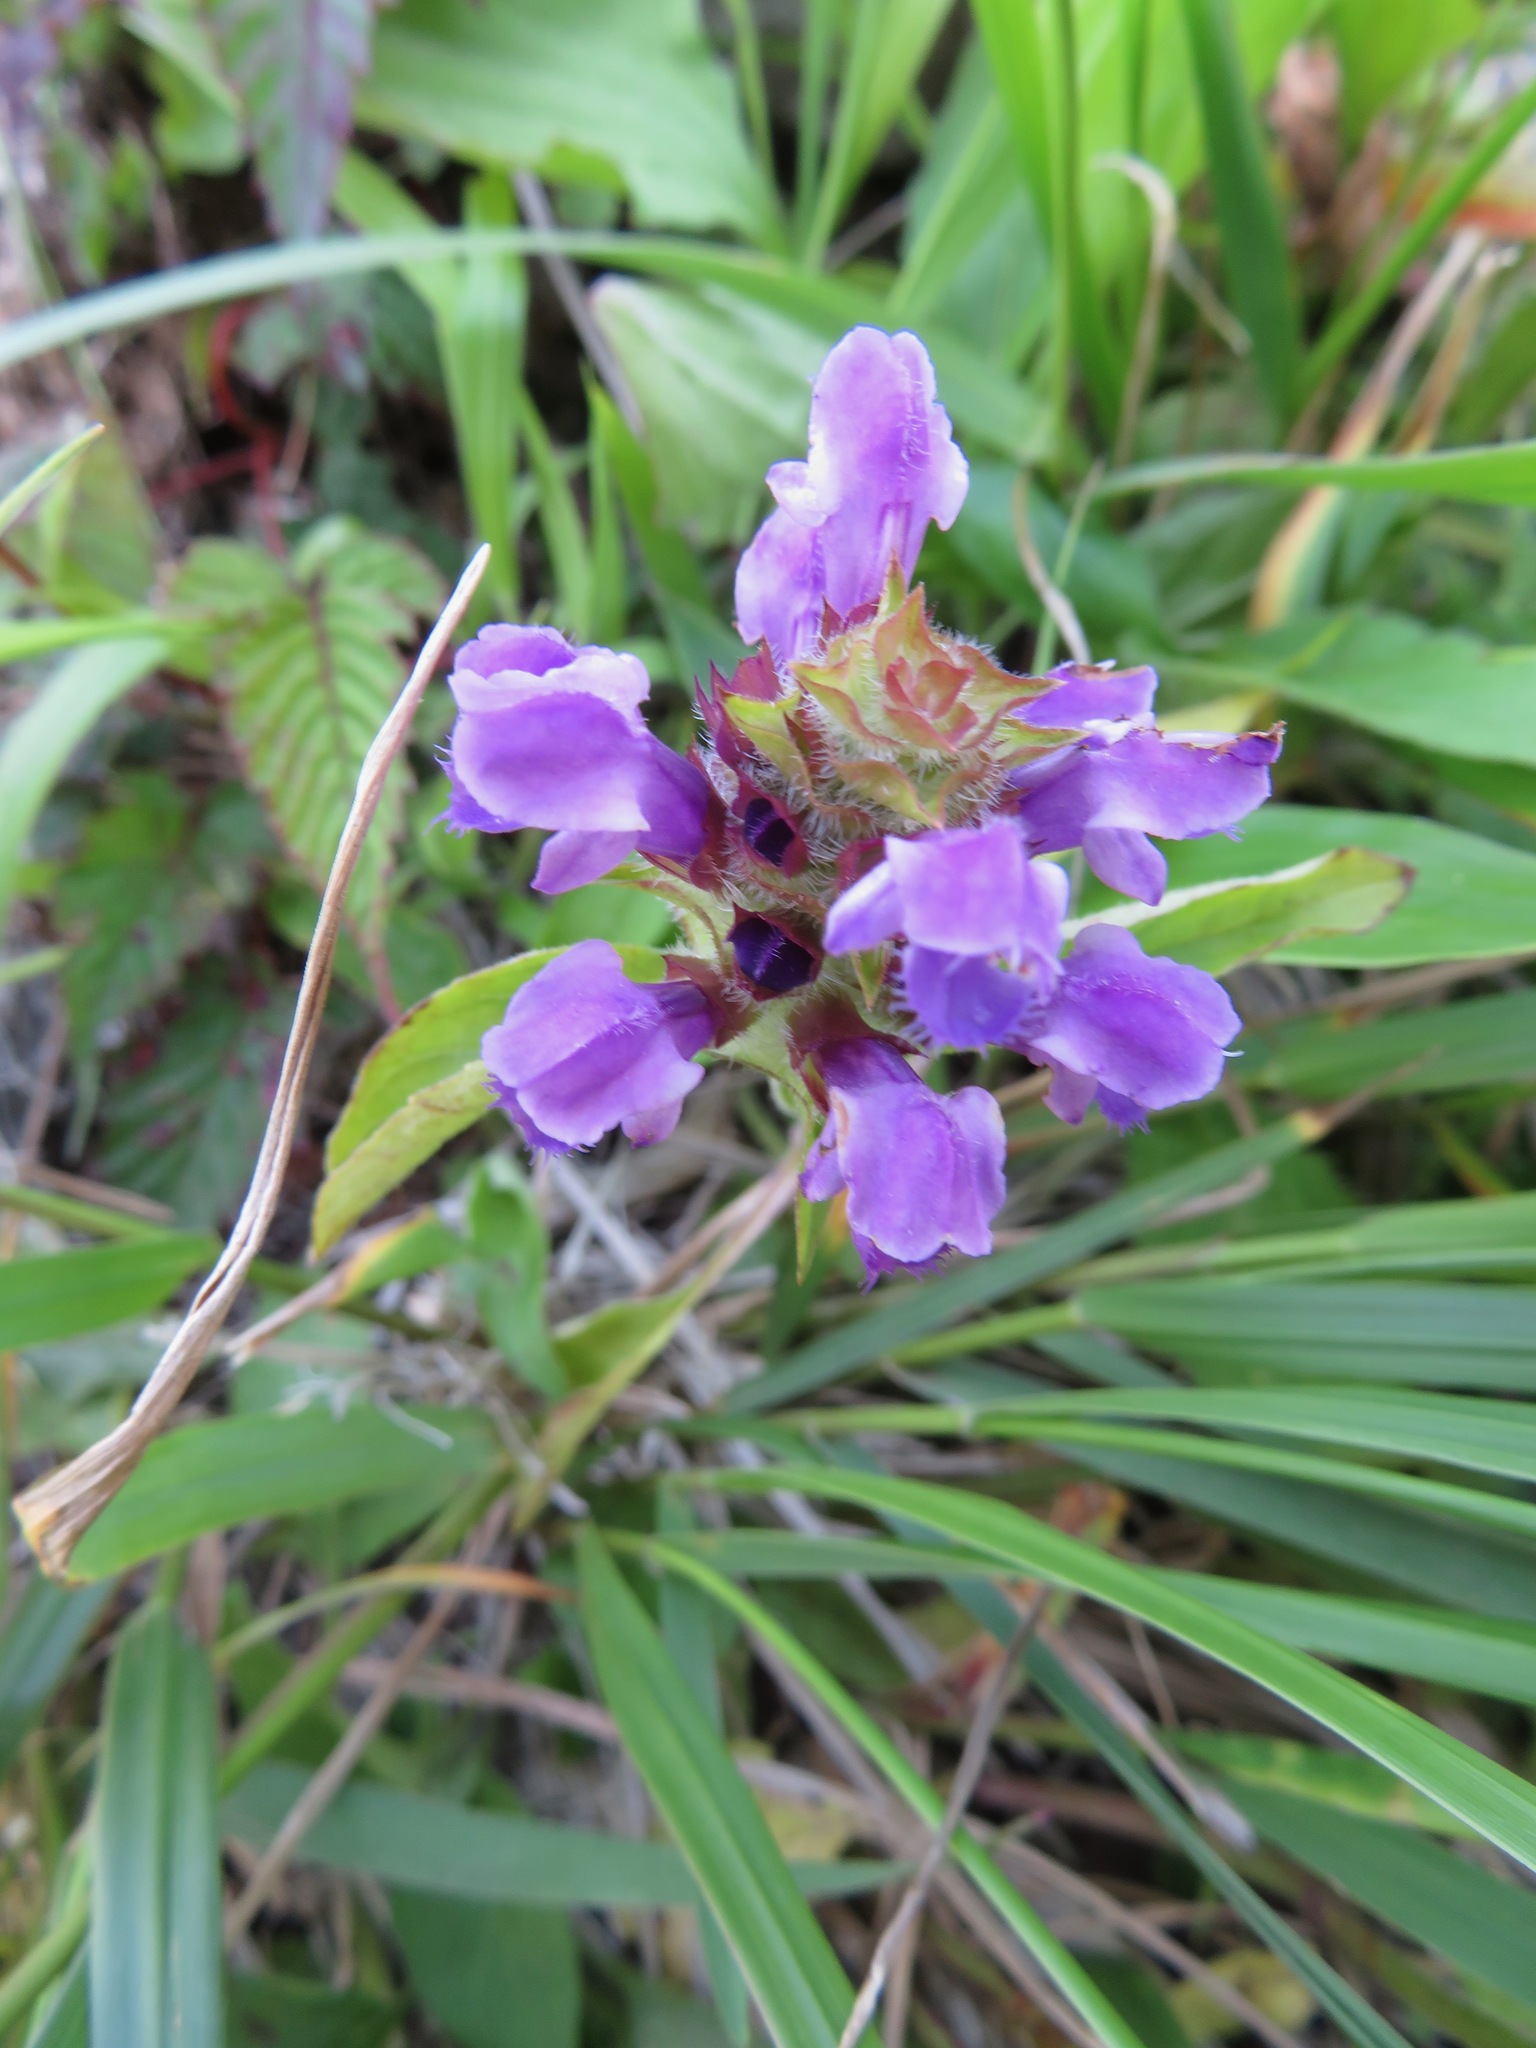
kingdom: Plantae
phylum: Tracheophyta
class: Magnoliopsida
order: Lamiales
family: Lamiaceae
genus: Prunella
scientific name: Prunella vulgaris
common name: Heal-all
